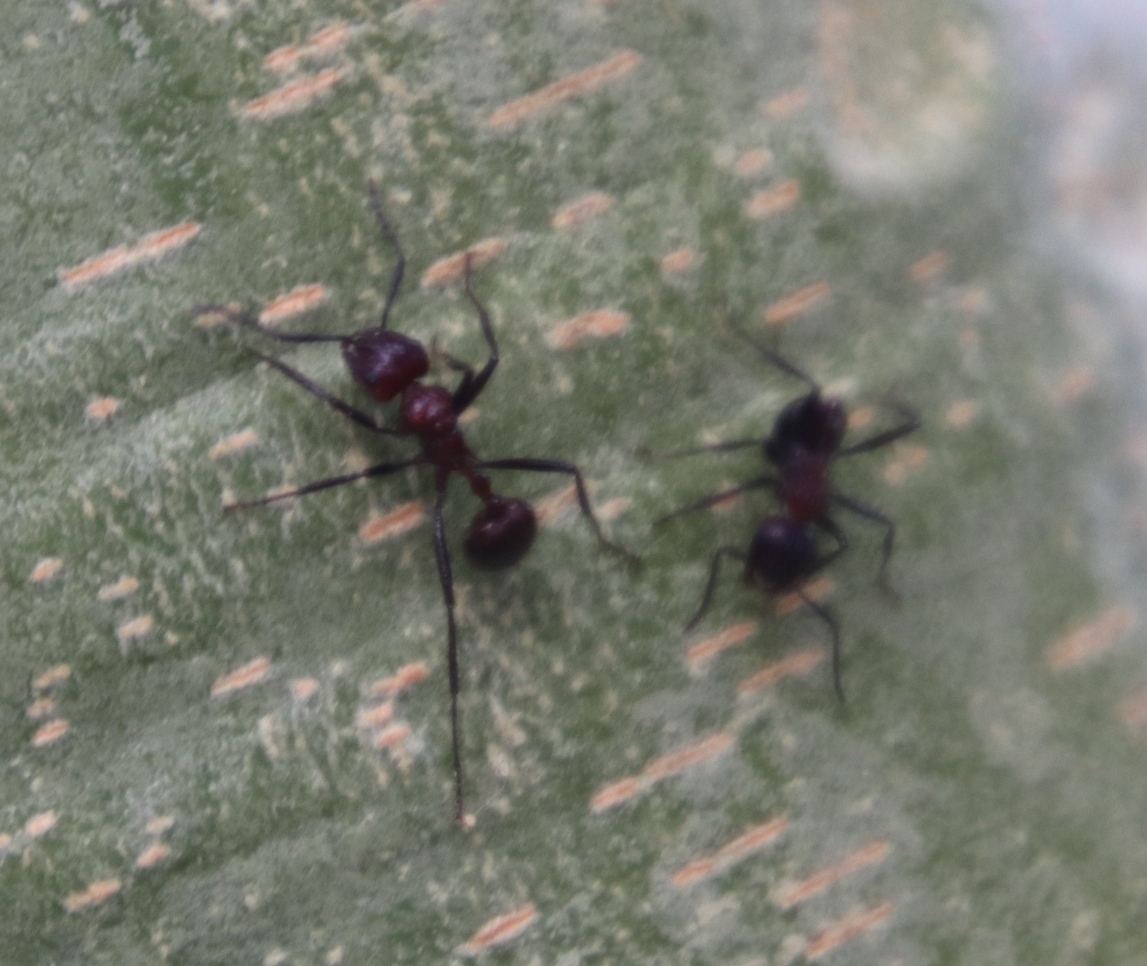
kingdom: Animalia
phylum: Arthropoda
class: Insecta
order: Hymenoptera
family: Formicidae
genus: Myrmicaria
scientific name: Myrmicaria natalensis
